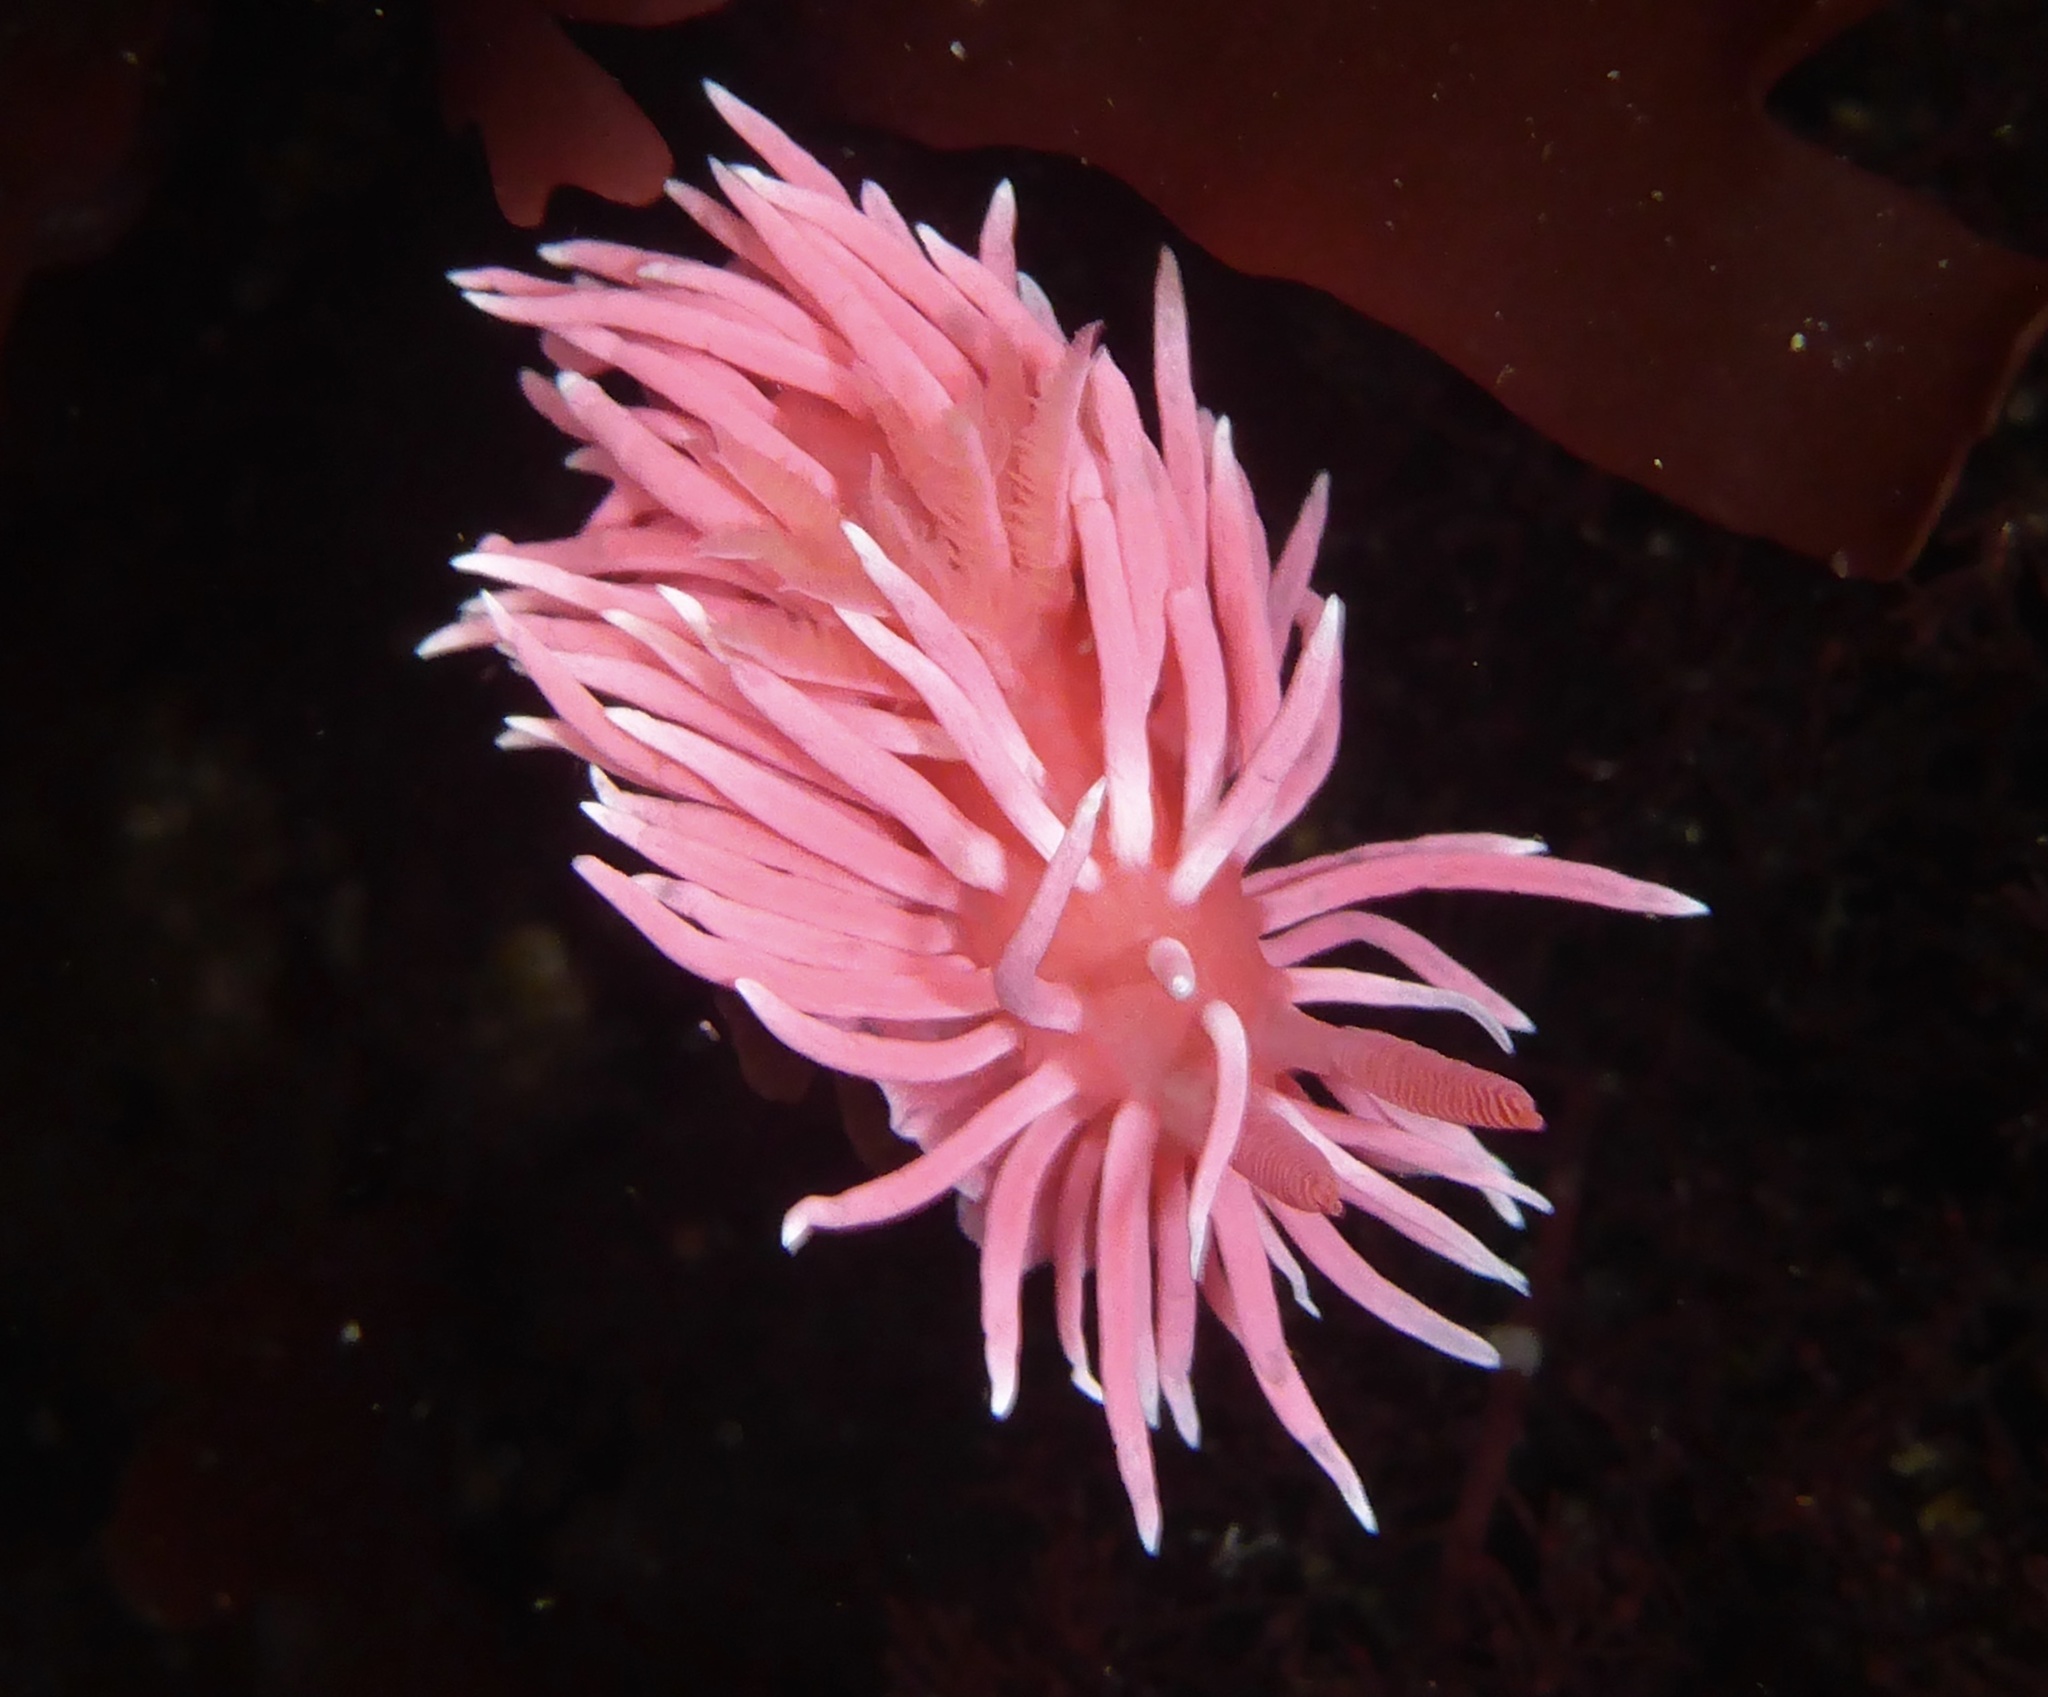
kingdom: Animalia
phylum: Mollusca
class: Gastropoda
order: Nudibranchia
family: Goniodorididae
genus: Okenia
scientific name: Okenia
